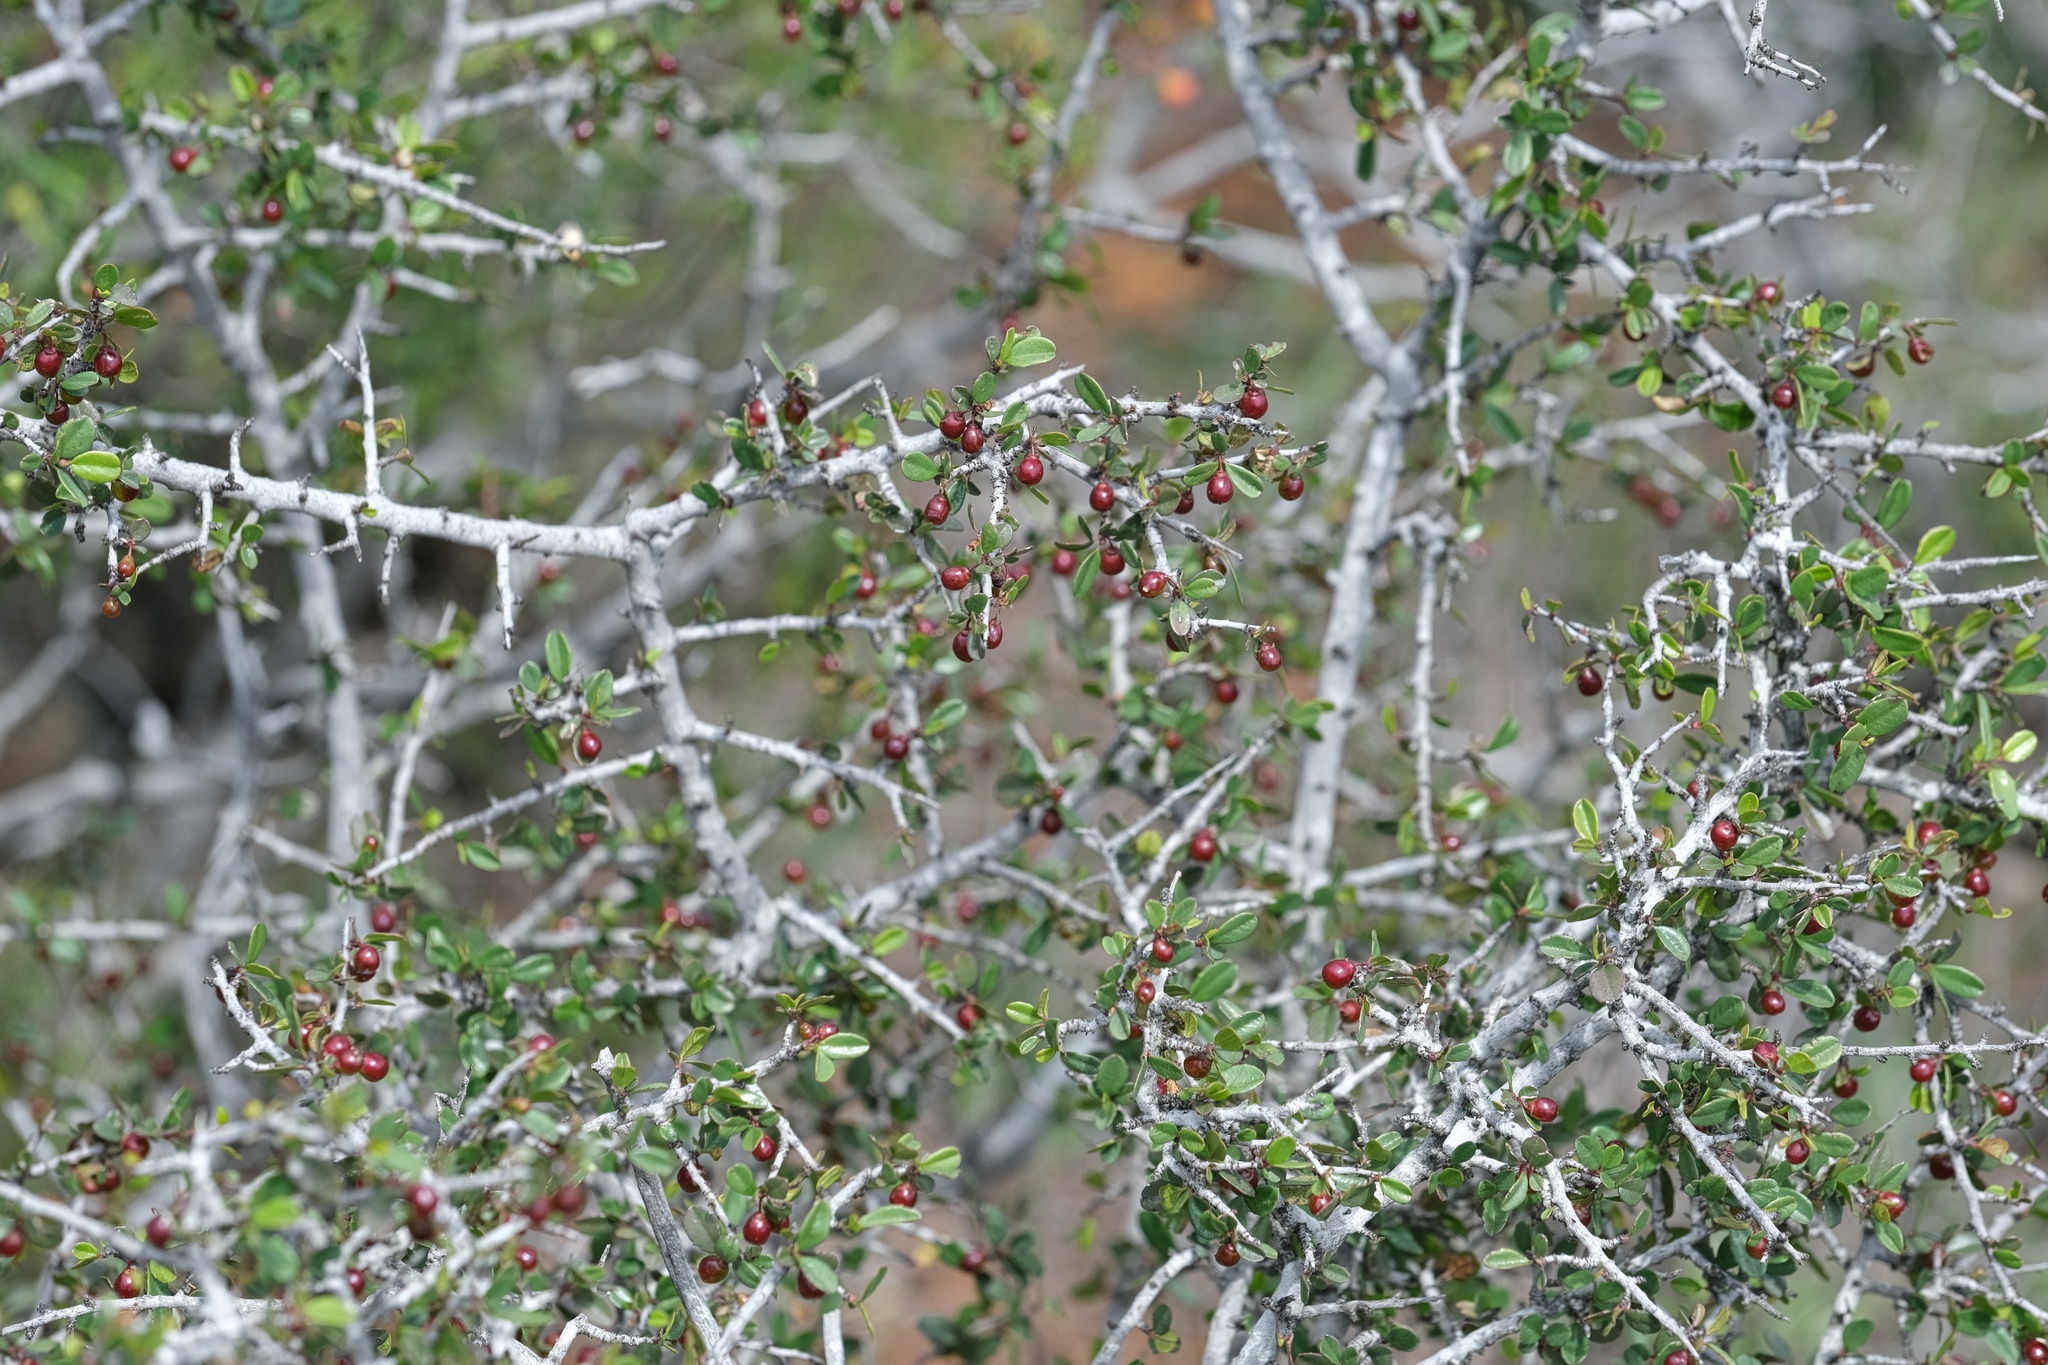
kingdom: Plantae
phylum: Tracheophyta
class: Magnoliopsida
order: Rosales
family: Rhamnaceae
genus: Endotropis
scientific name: Endotropis crocea
